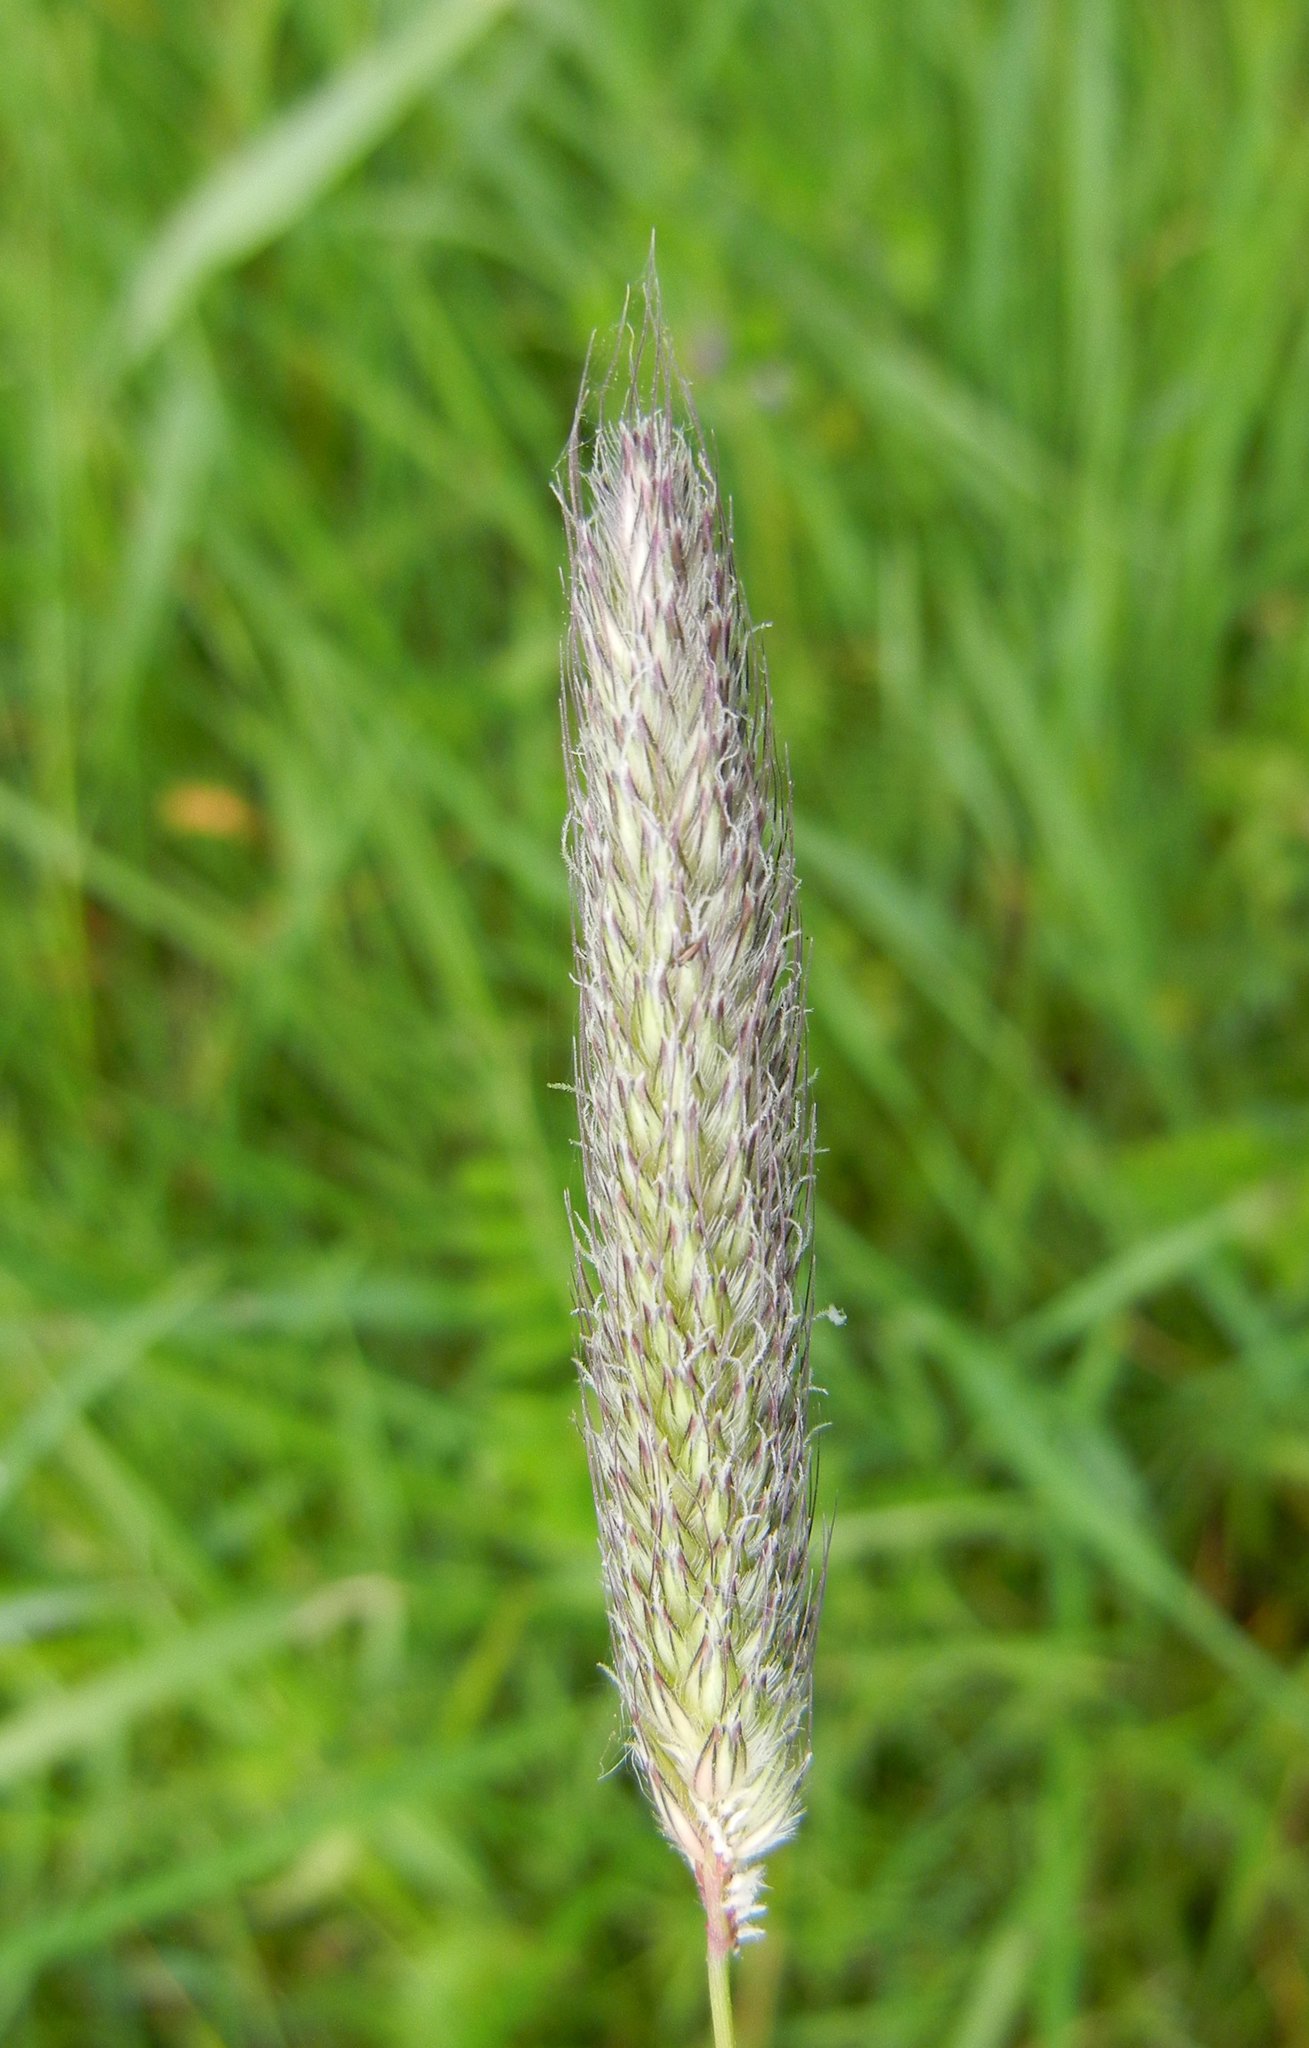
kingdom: Plantae
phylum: Tracheophyta
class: Liliopsida
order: Poales
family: Poaceae
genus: Alopecurus
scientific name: Alopecurus pratensis
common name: Meadow foxtail
